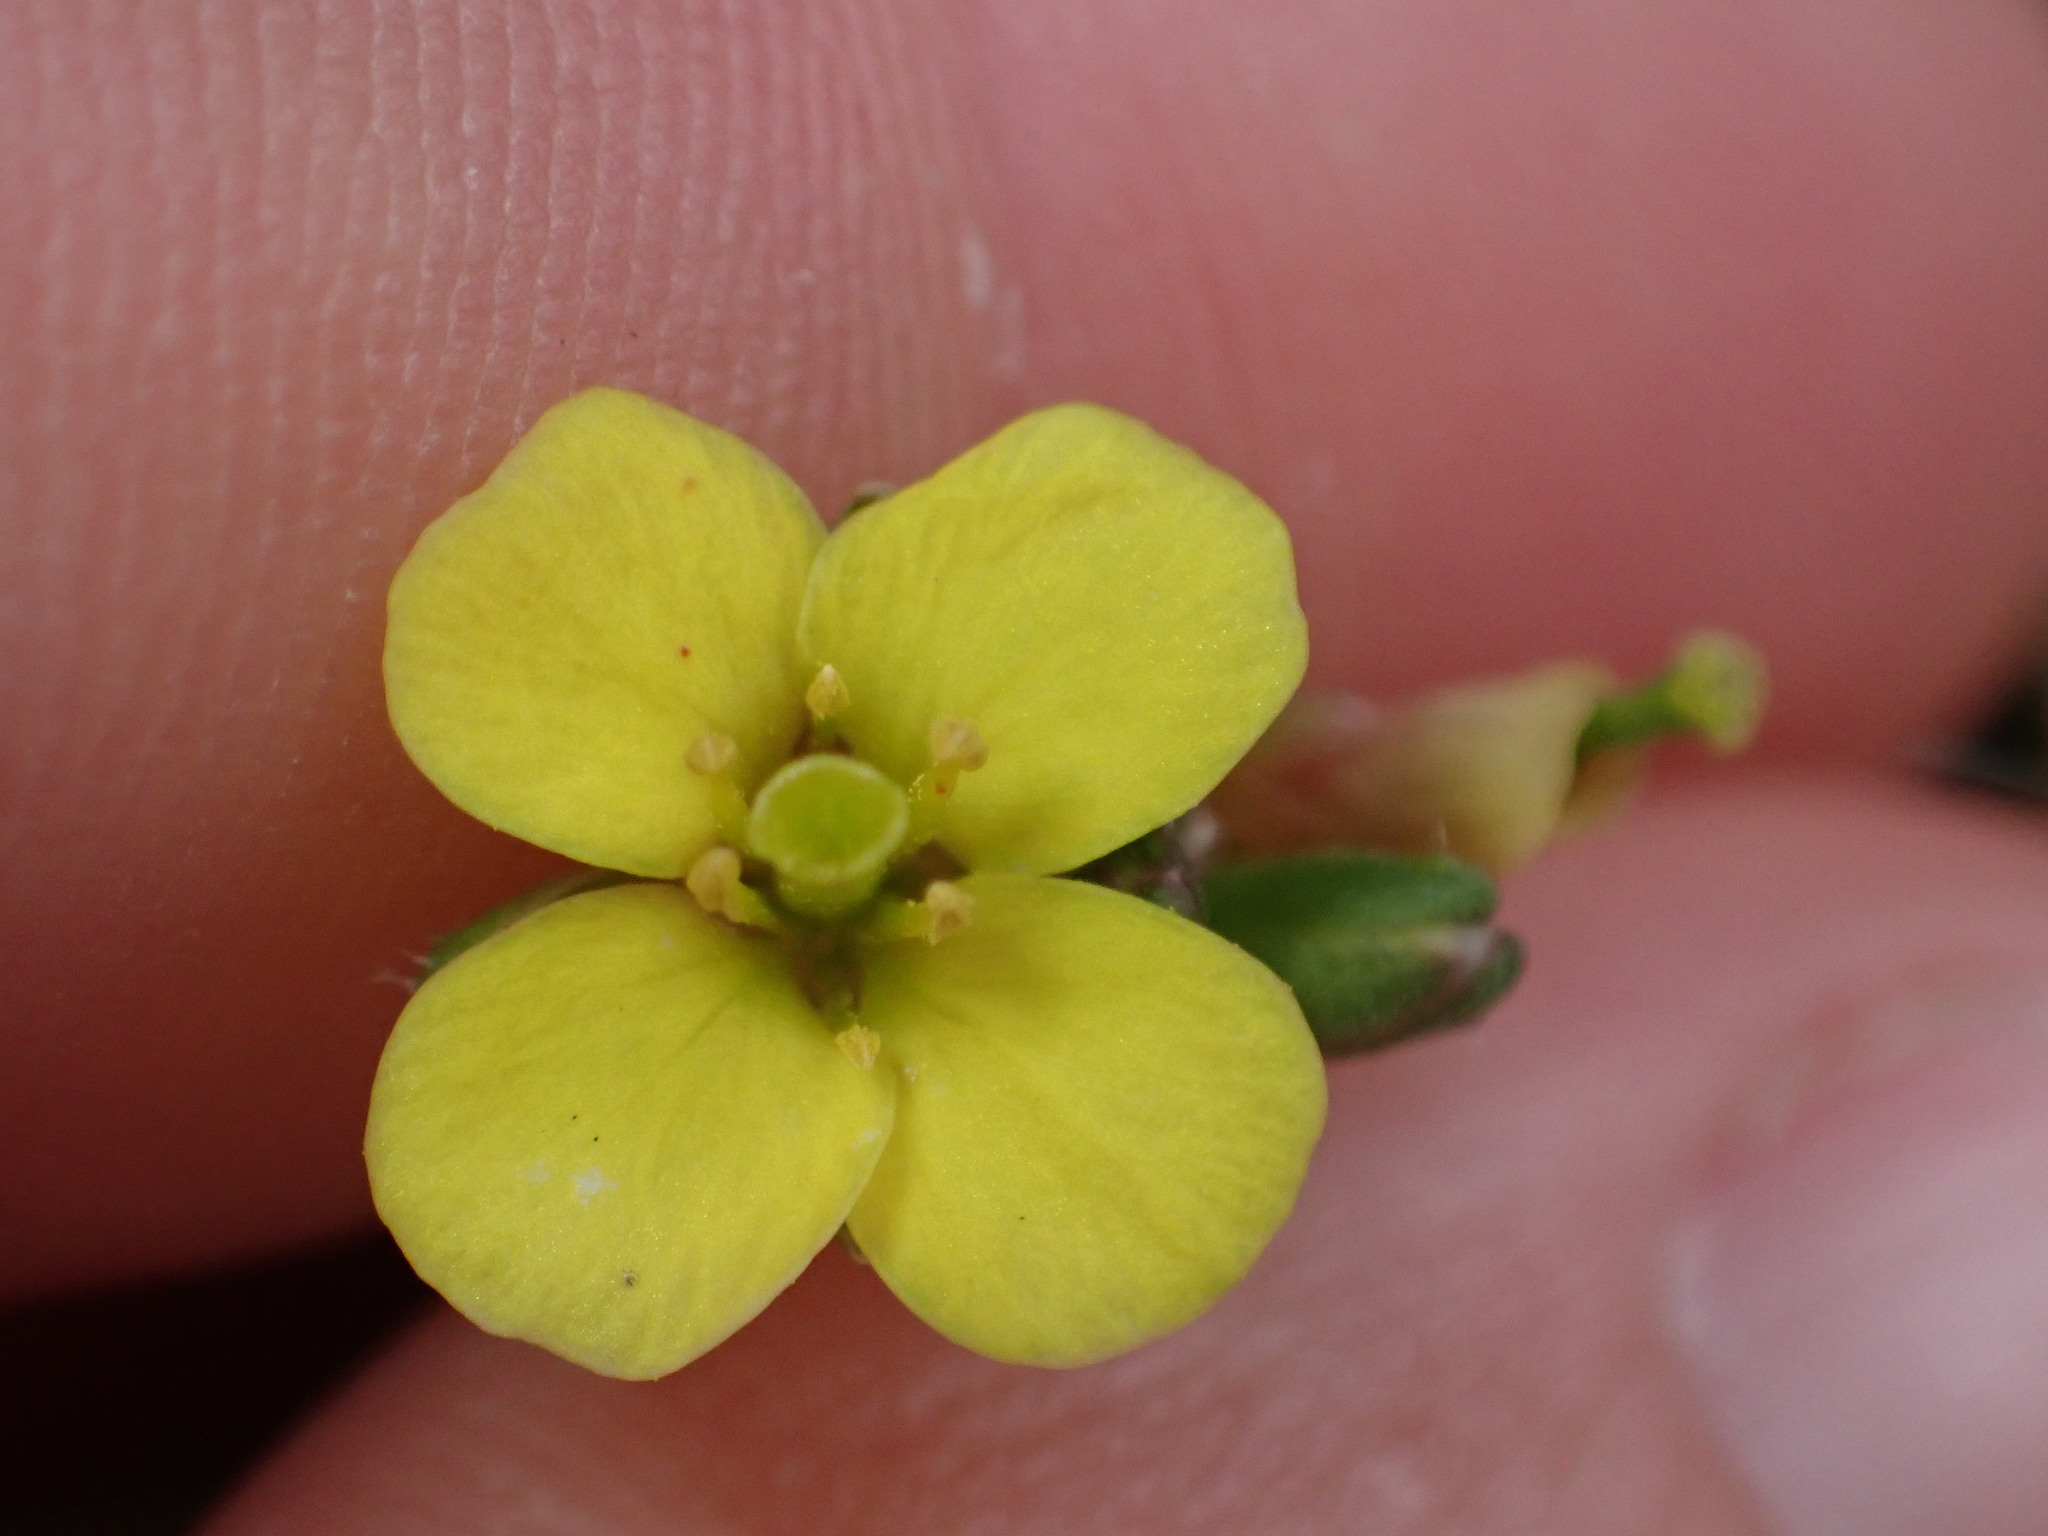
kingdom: Plantae
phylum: Tracheophyta
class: Magnoliopsida
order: Brassicales
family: Brassicaceae
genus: Diplotaxis
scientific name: Diplotaxis muralis
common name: Annual wall-rocket
